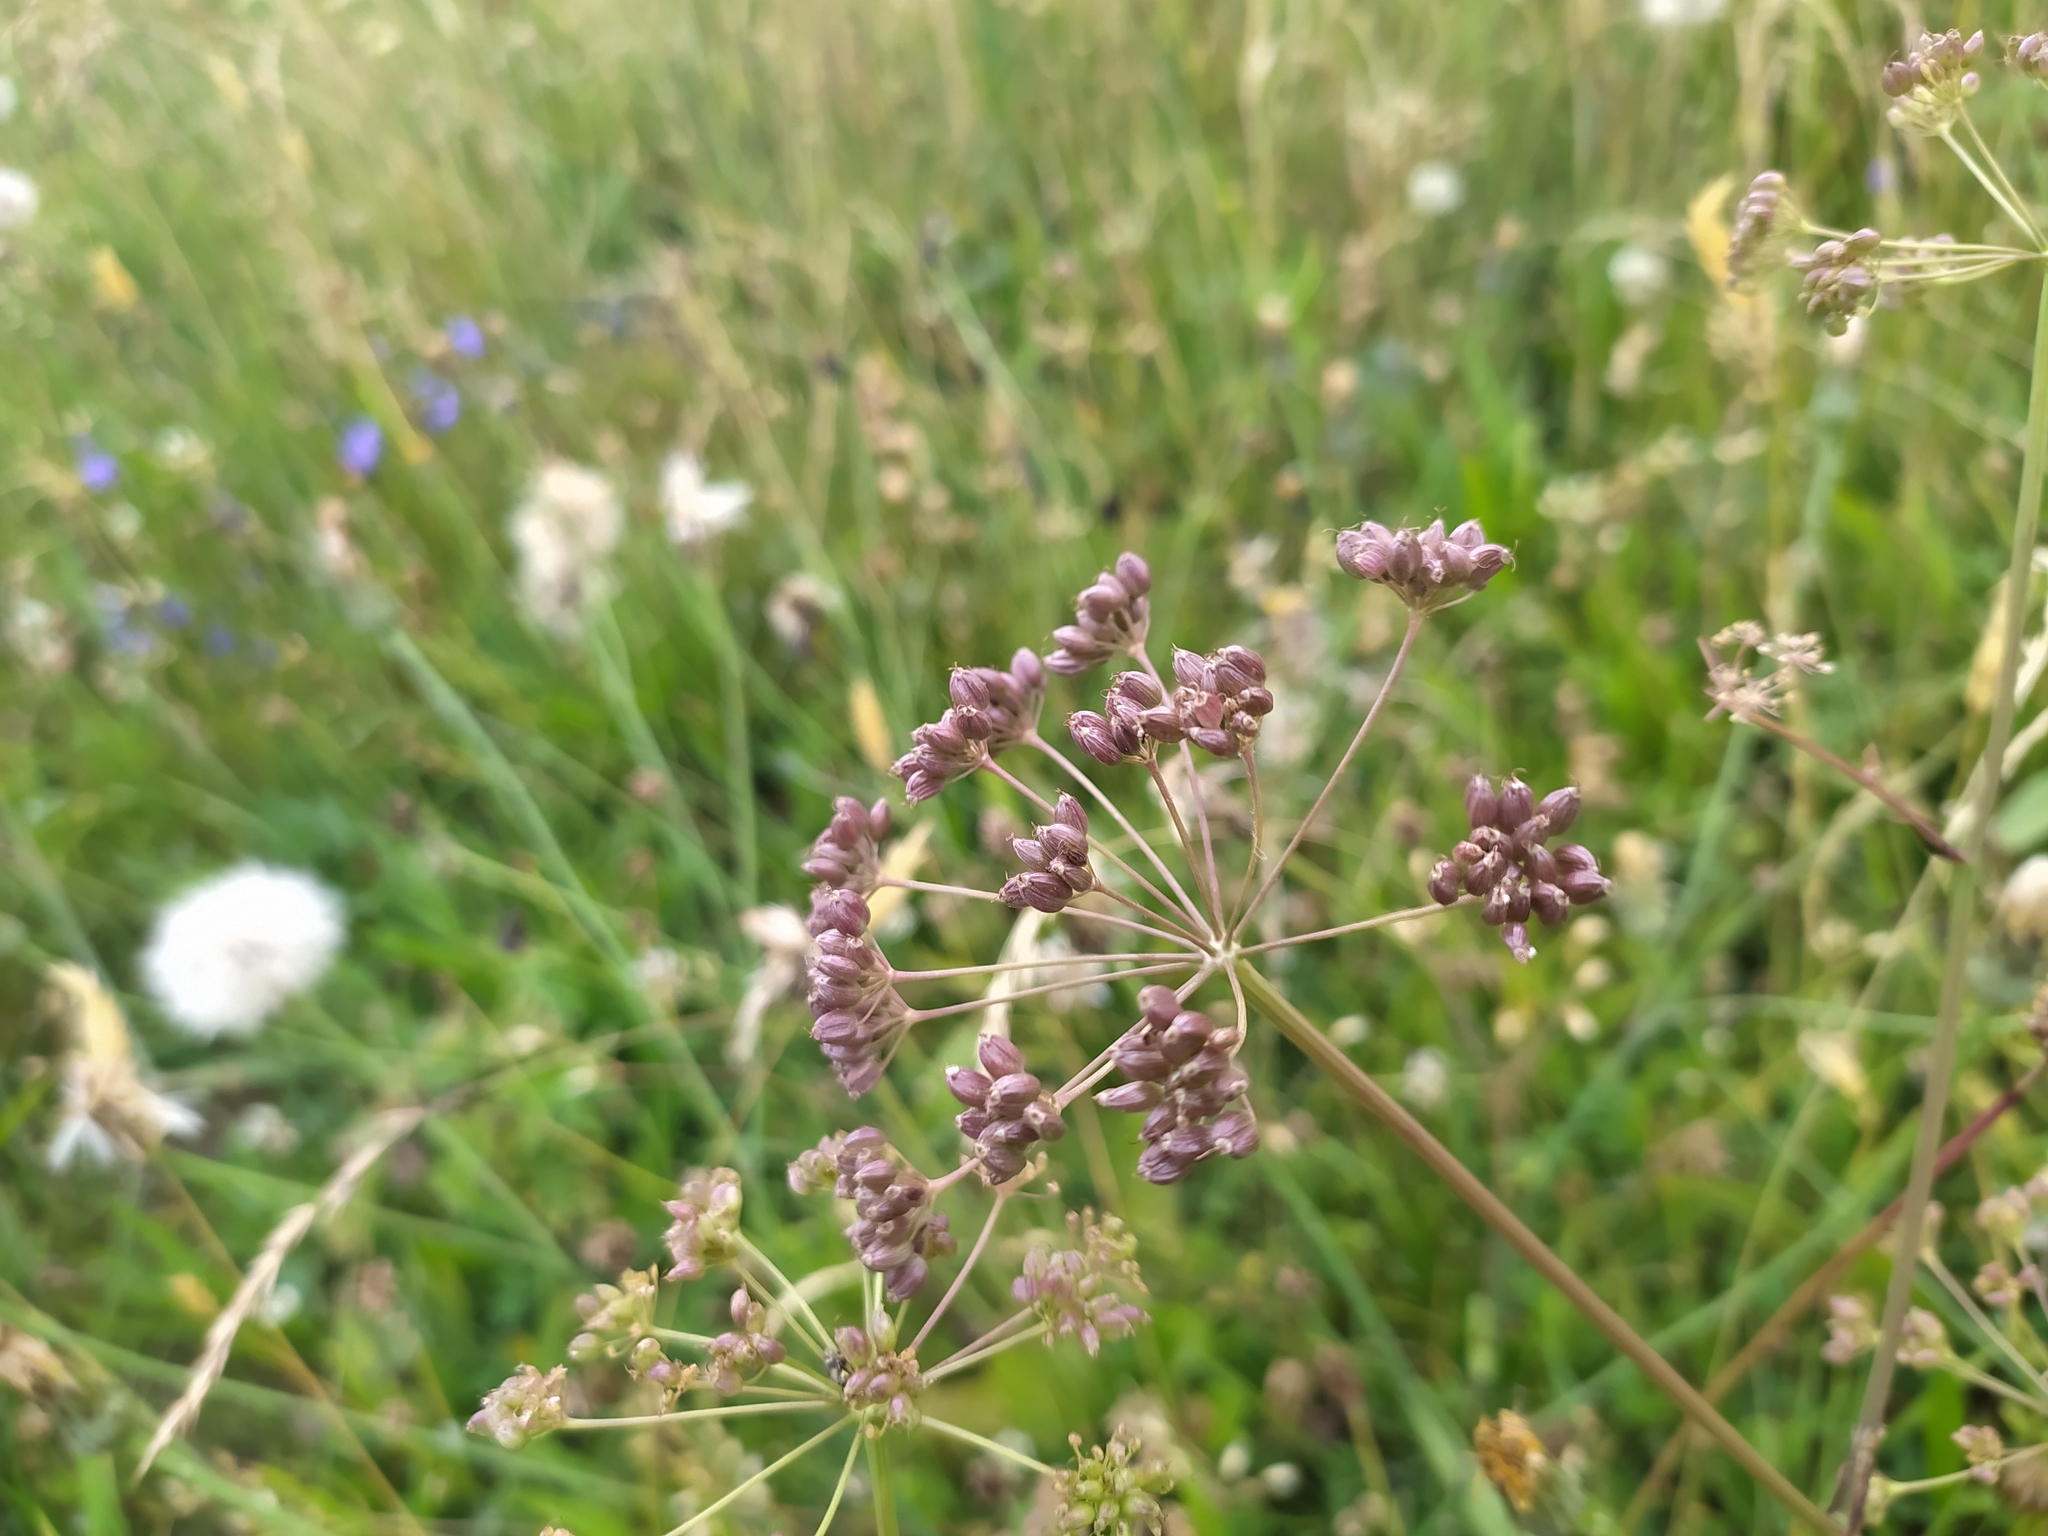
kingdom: Plantae
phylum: Tracheophyta
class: Magnoliopsida
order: Apiales
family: Apiaceae
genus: Pimpinella
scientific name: Pimpinella major
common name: Greater burnet-saxifrage
